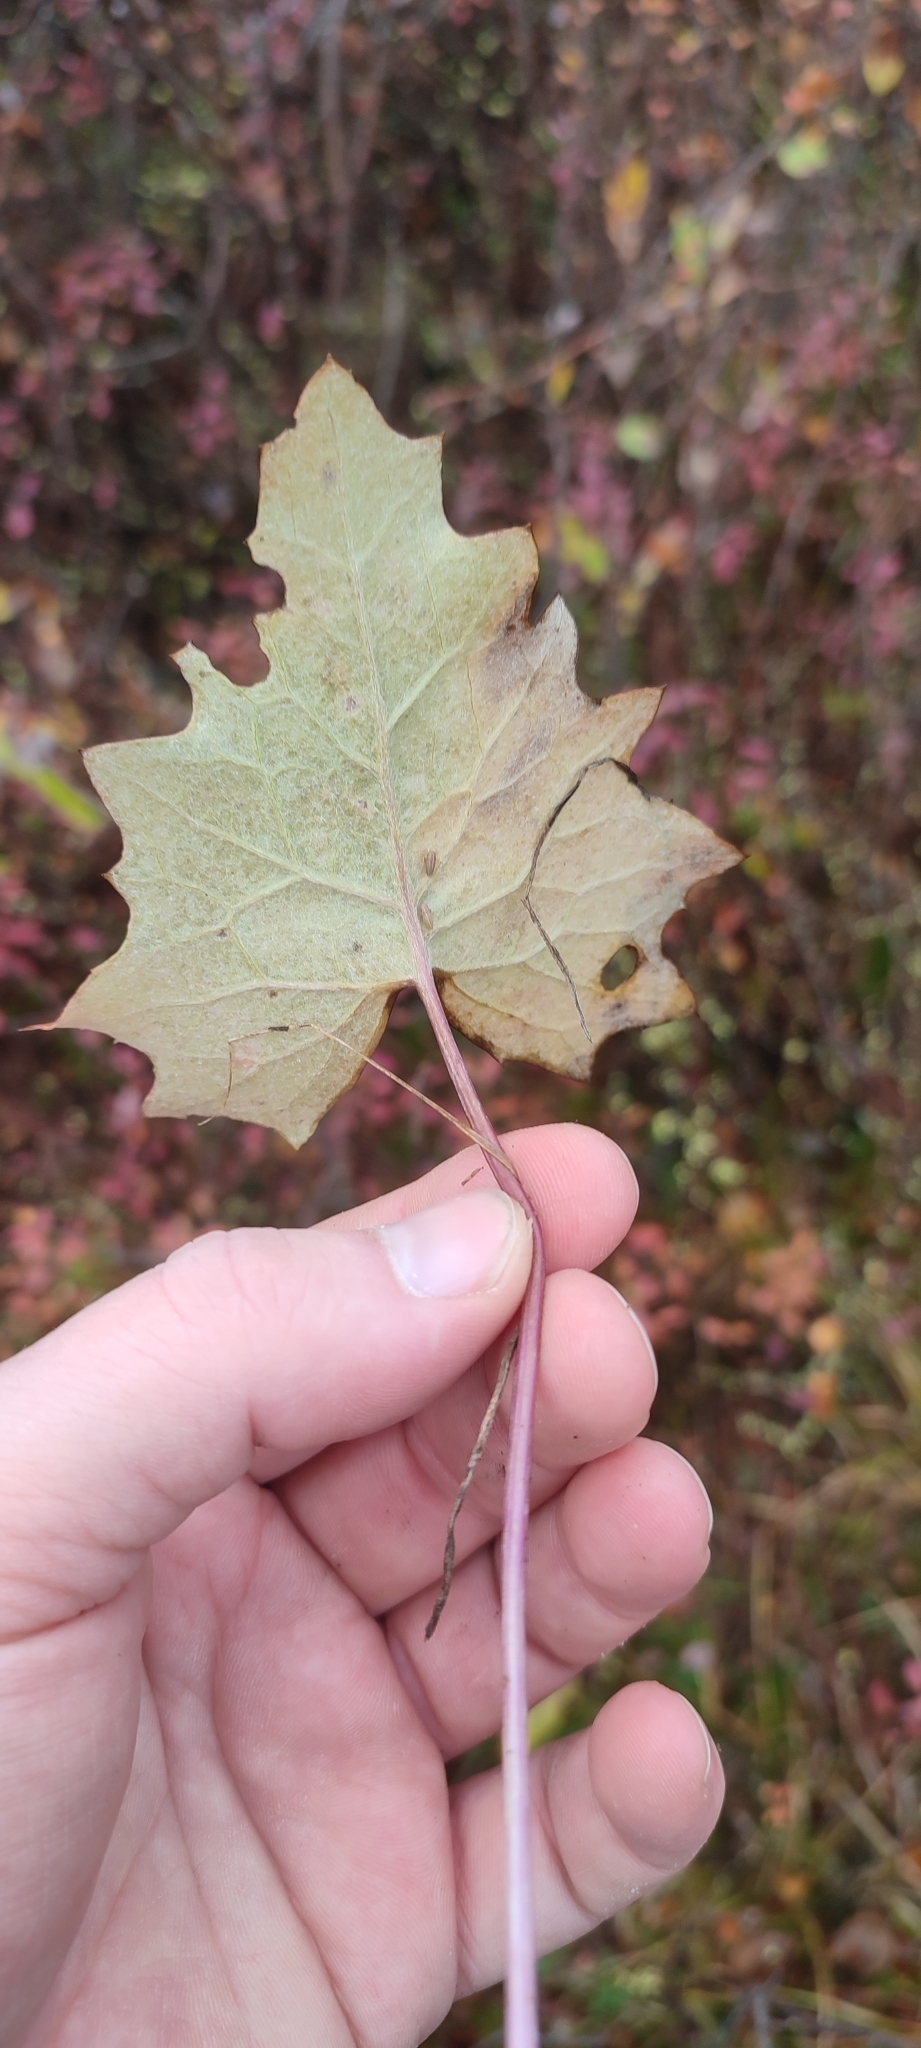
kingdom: Plantae
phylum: Tracheophyta
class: Magnoliopsida
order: Asterales
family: Asteraceae
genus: Petasites
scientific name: Petasites frigidus
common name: Arctic butterbur
